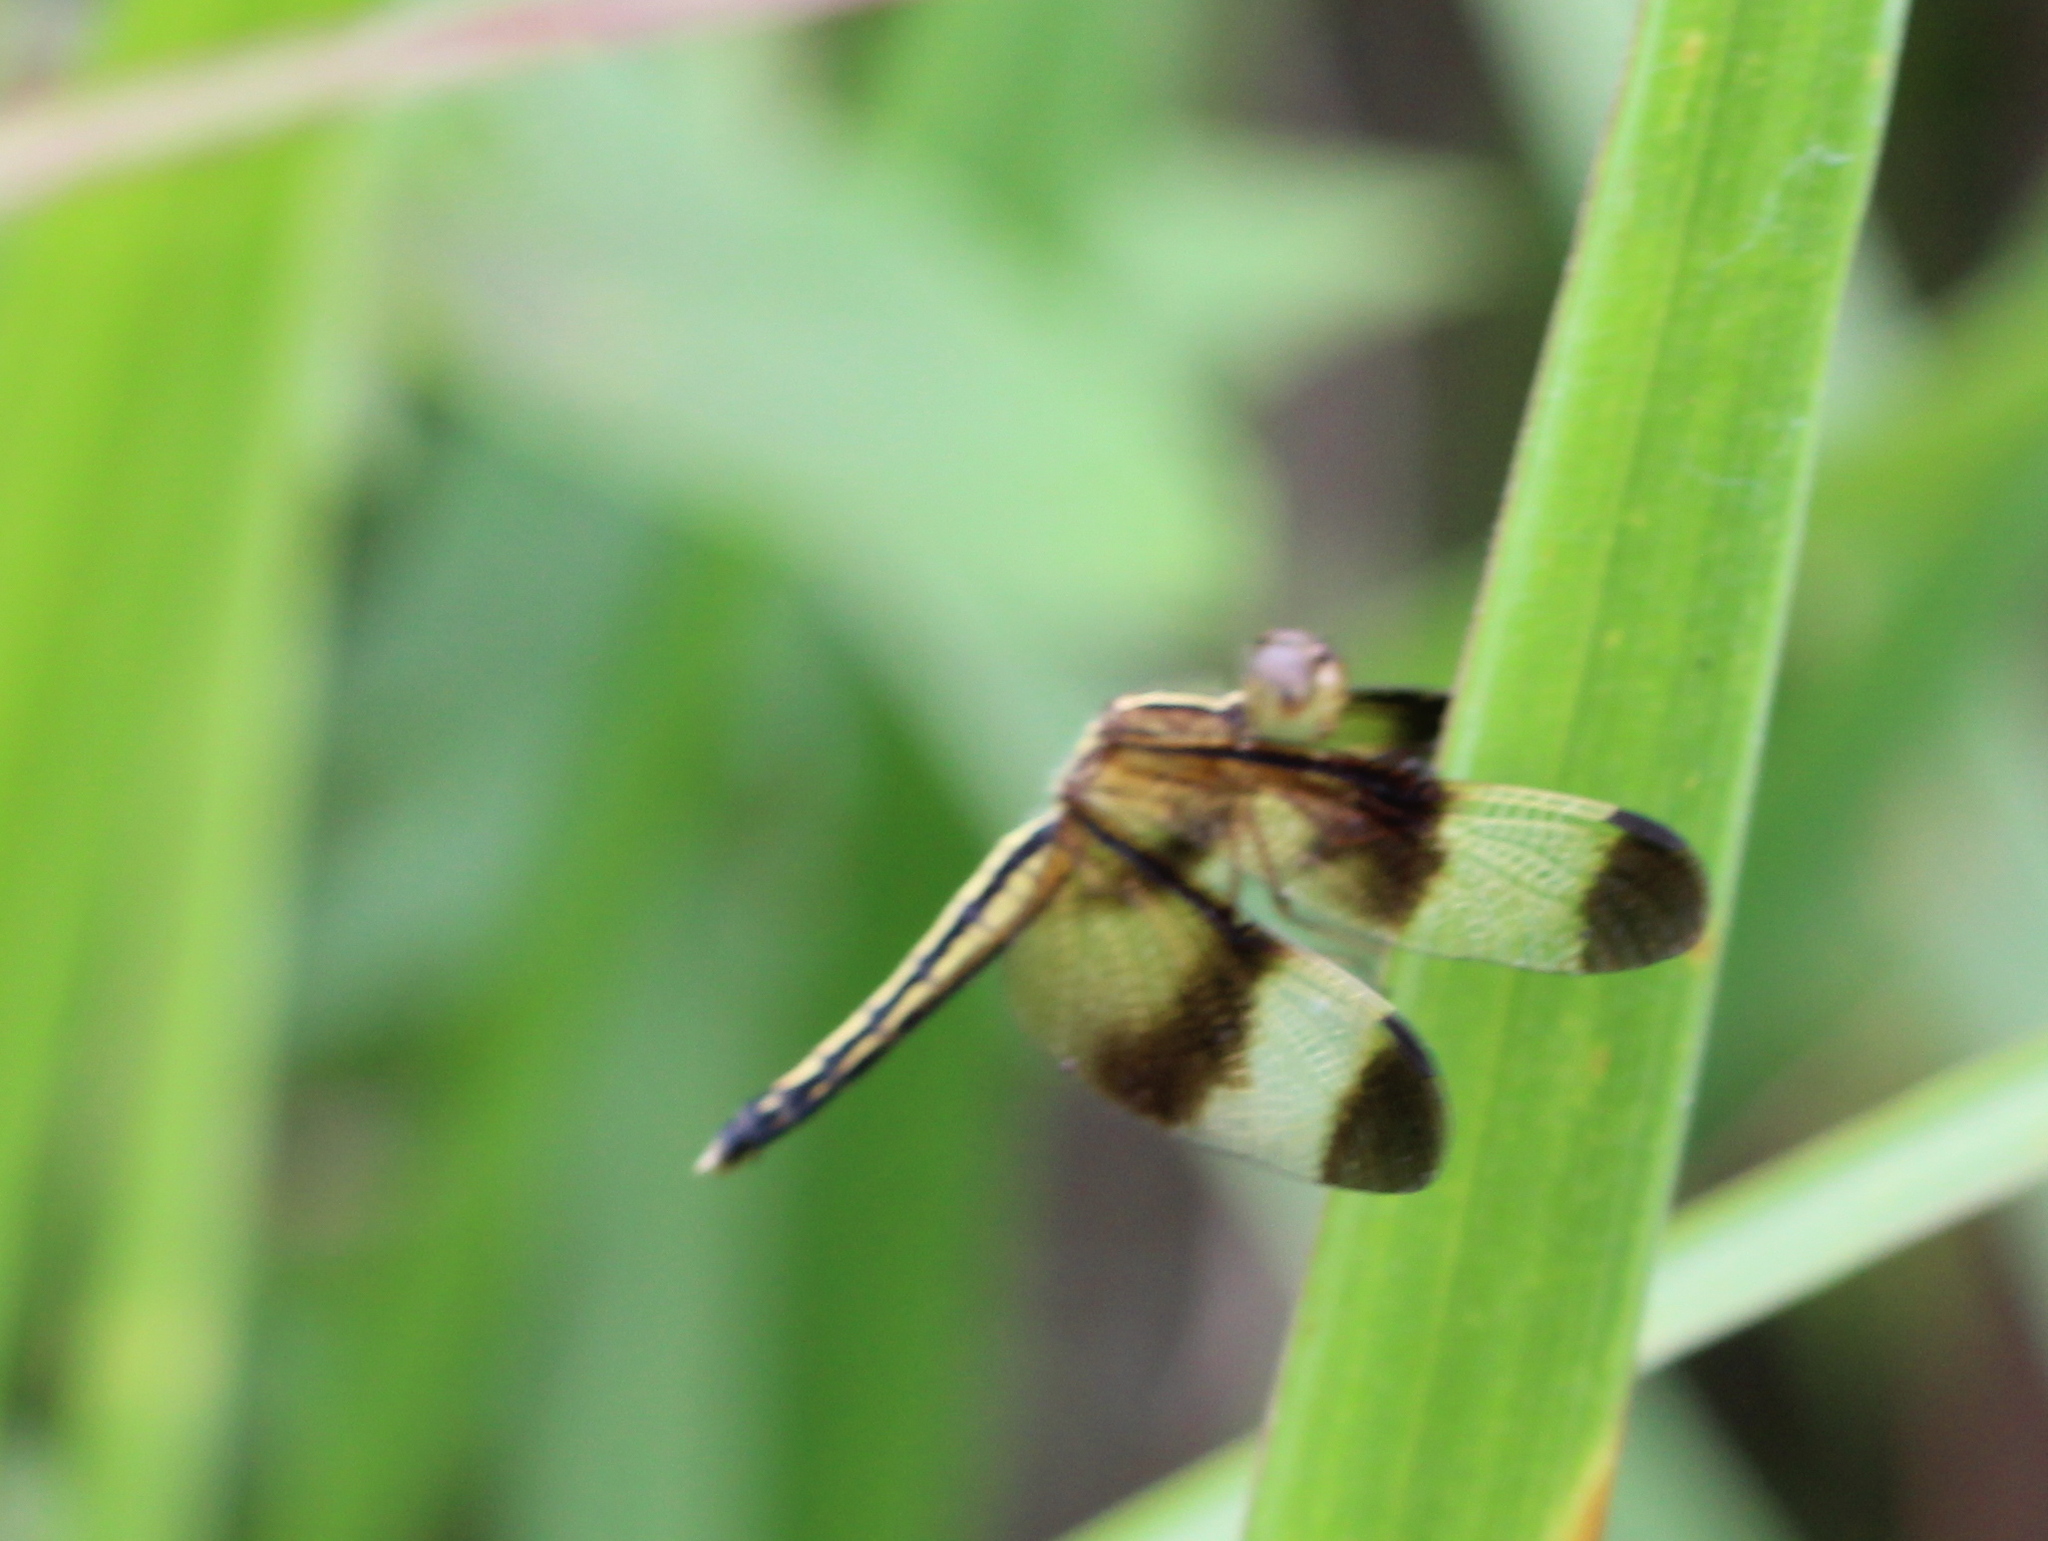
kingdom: Animalia
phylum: Arthropoda
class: Insecta
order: Odonata
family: Libellulidae
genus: Neurothemis
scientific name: Neurothemis tullia
